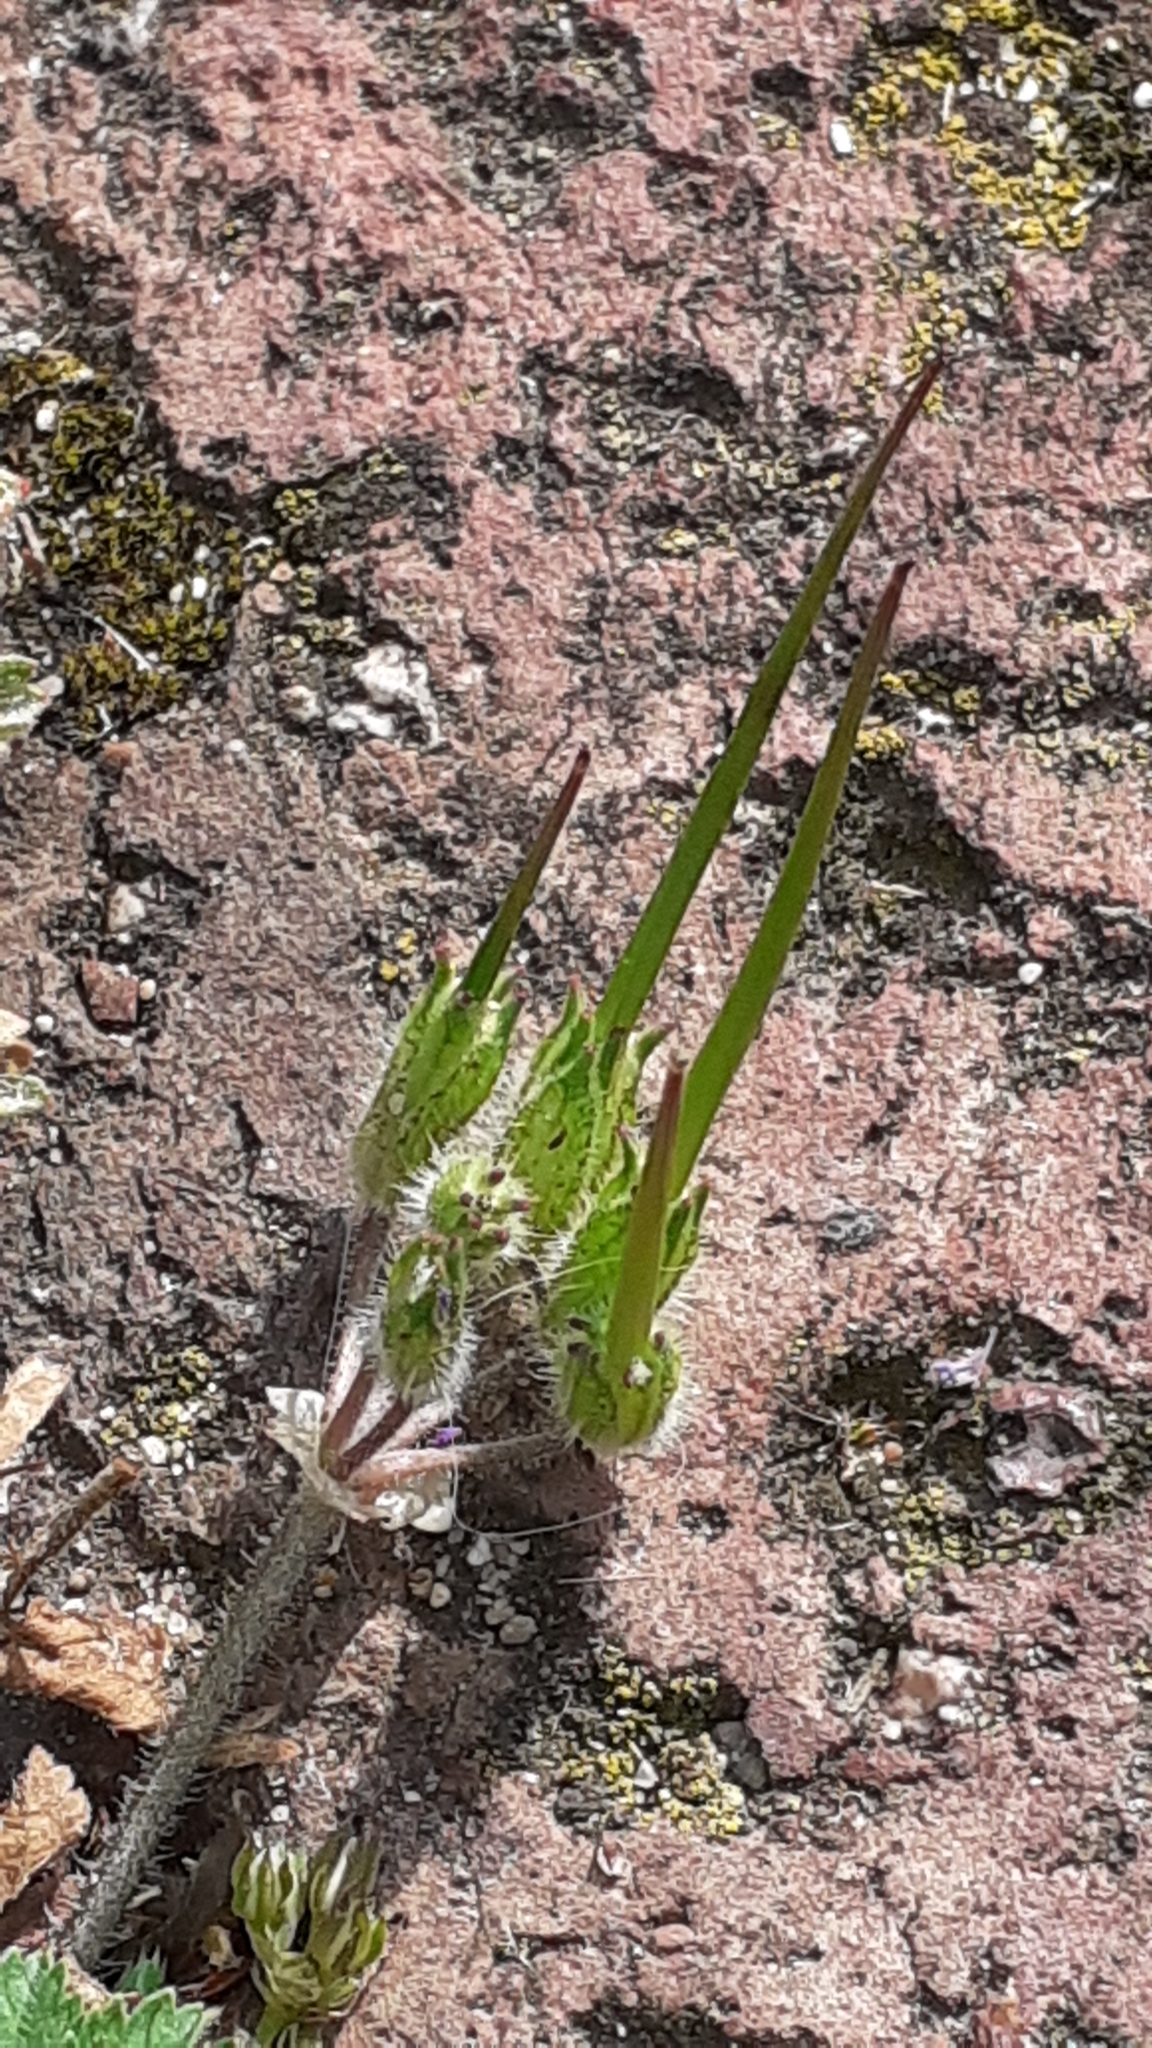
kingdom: Plantae
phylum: Tracheophyta
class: Magnoliopsida
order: Geraniales
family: Geraniaceae
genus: Erodium
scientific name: Erodium moschatum
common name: Musk stork's-bill
